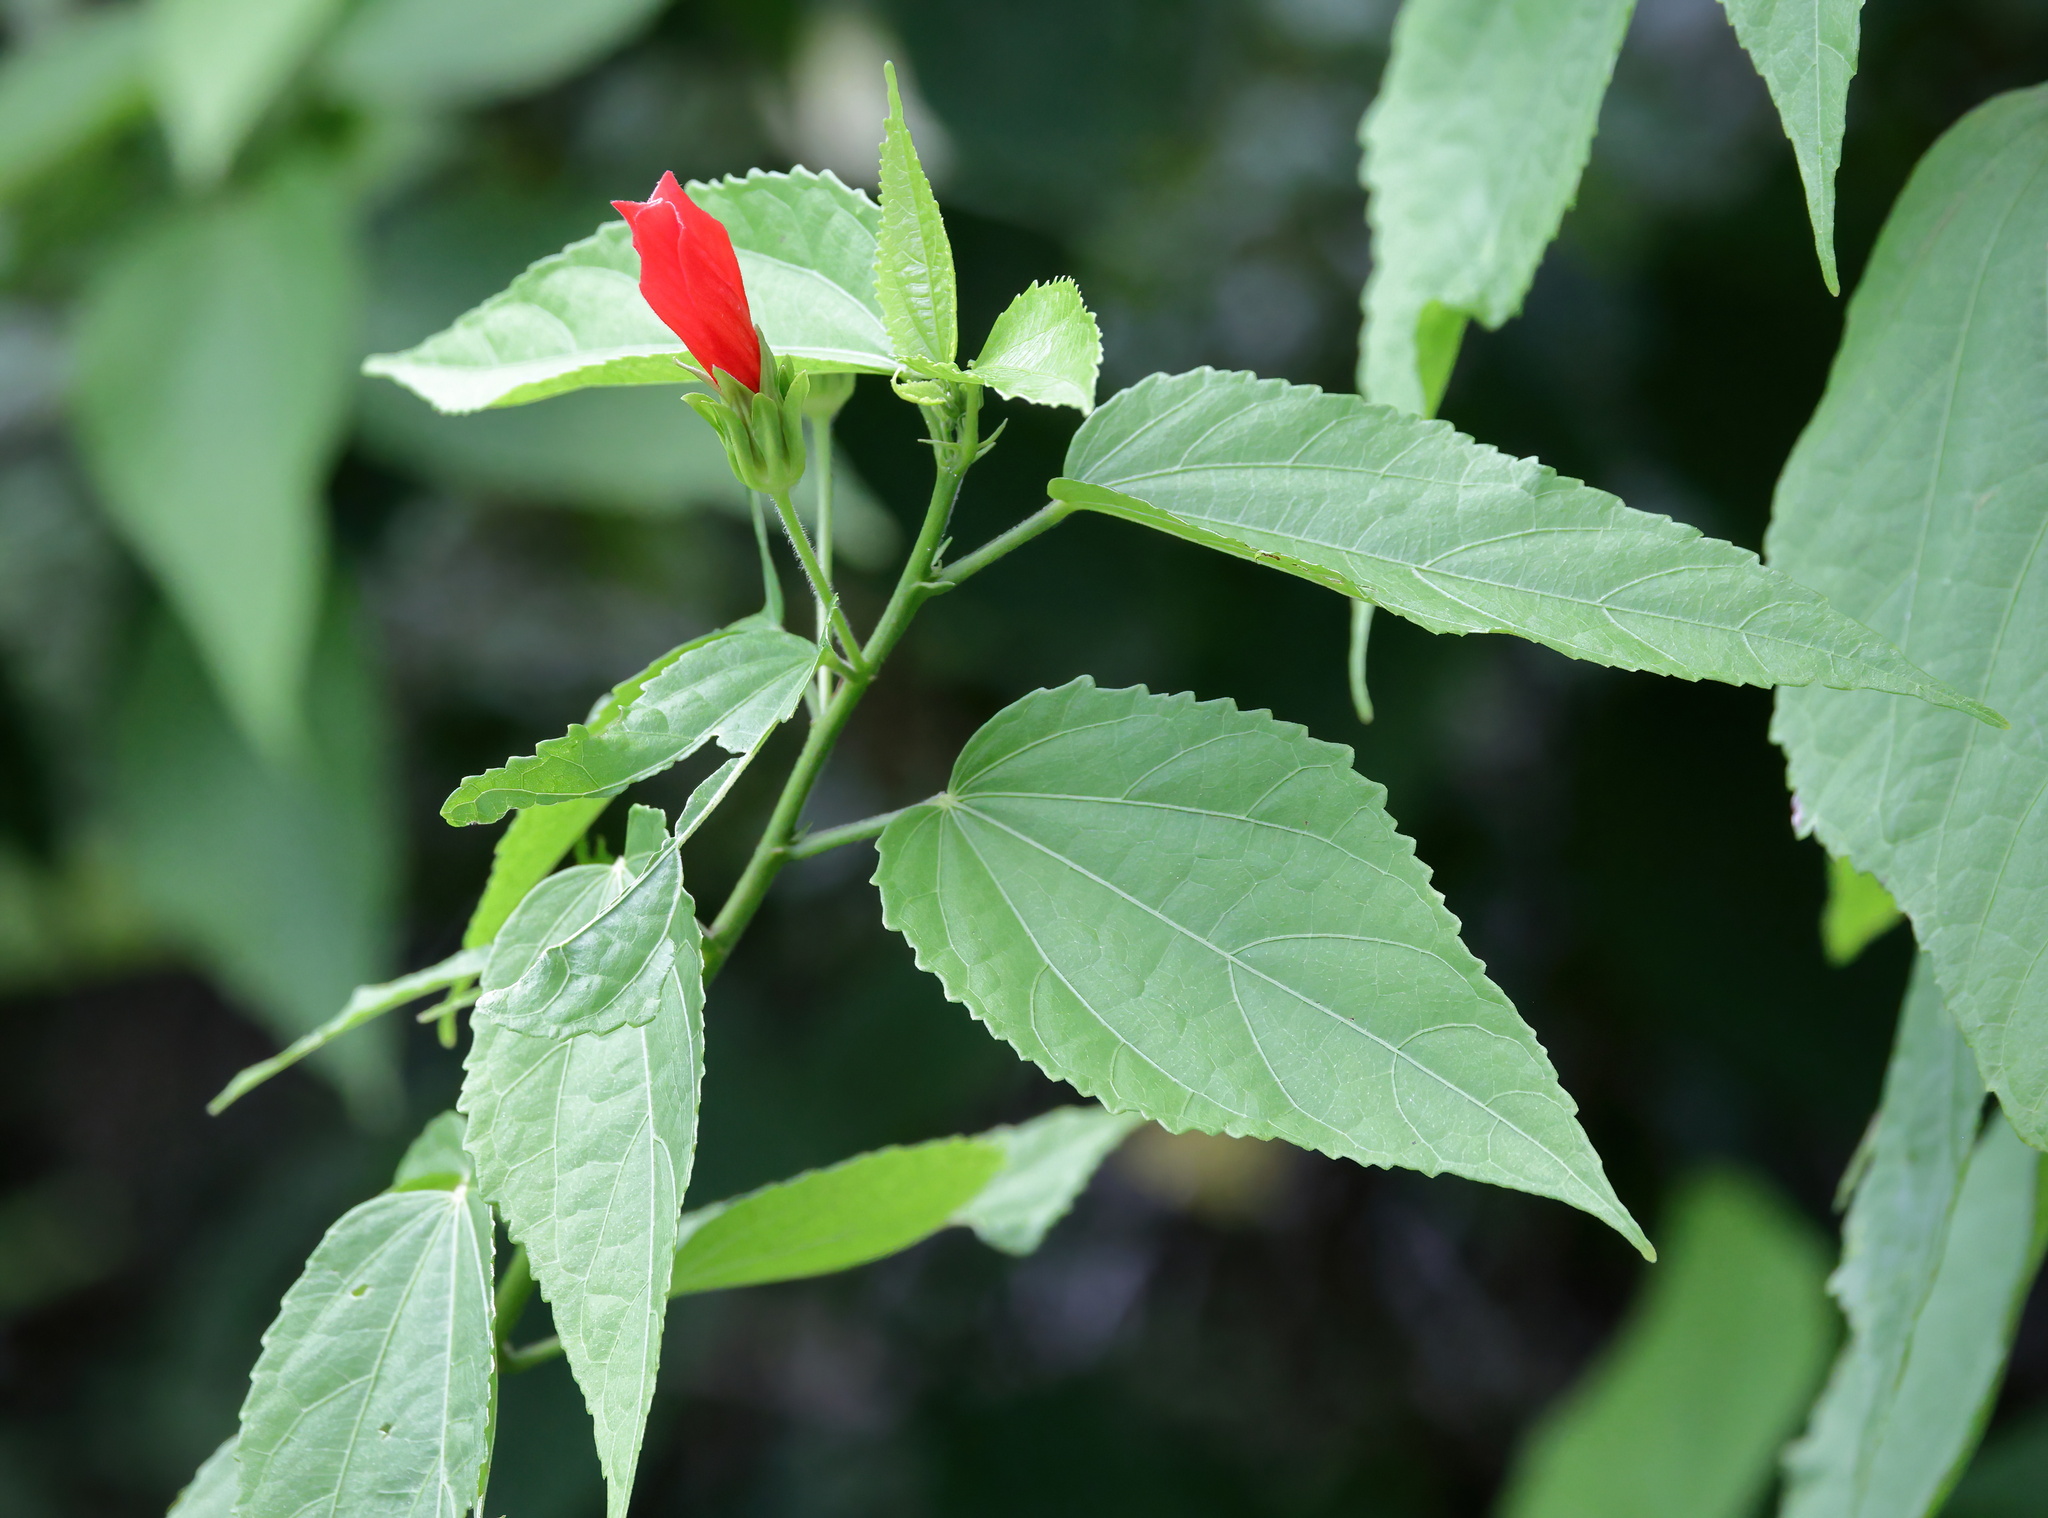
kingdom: Plantae
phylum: Tracheophyta
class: Magnoliopsida
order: Malvales
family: Malvaceae
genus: Malvaviscus
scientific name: Malvaviscus penduliflorus
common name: Mazapan
